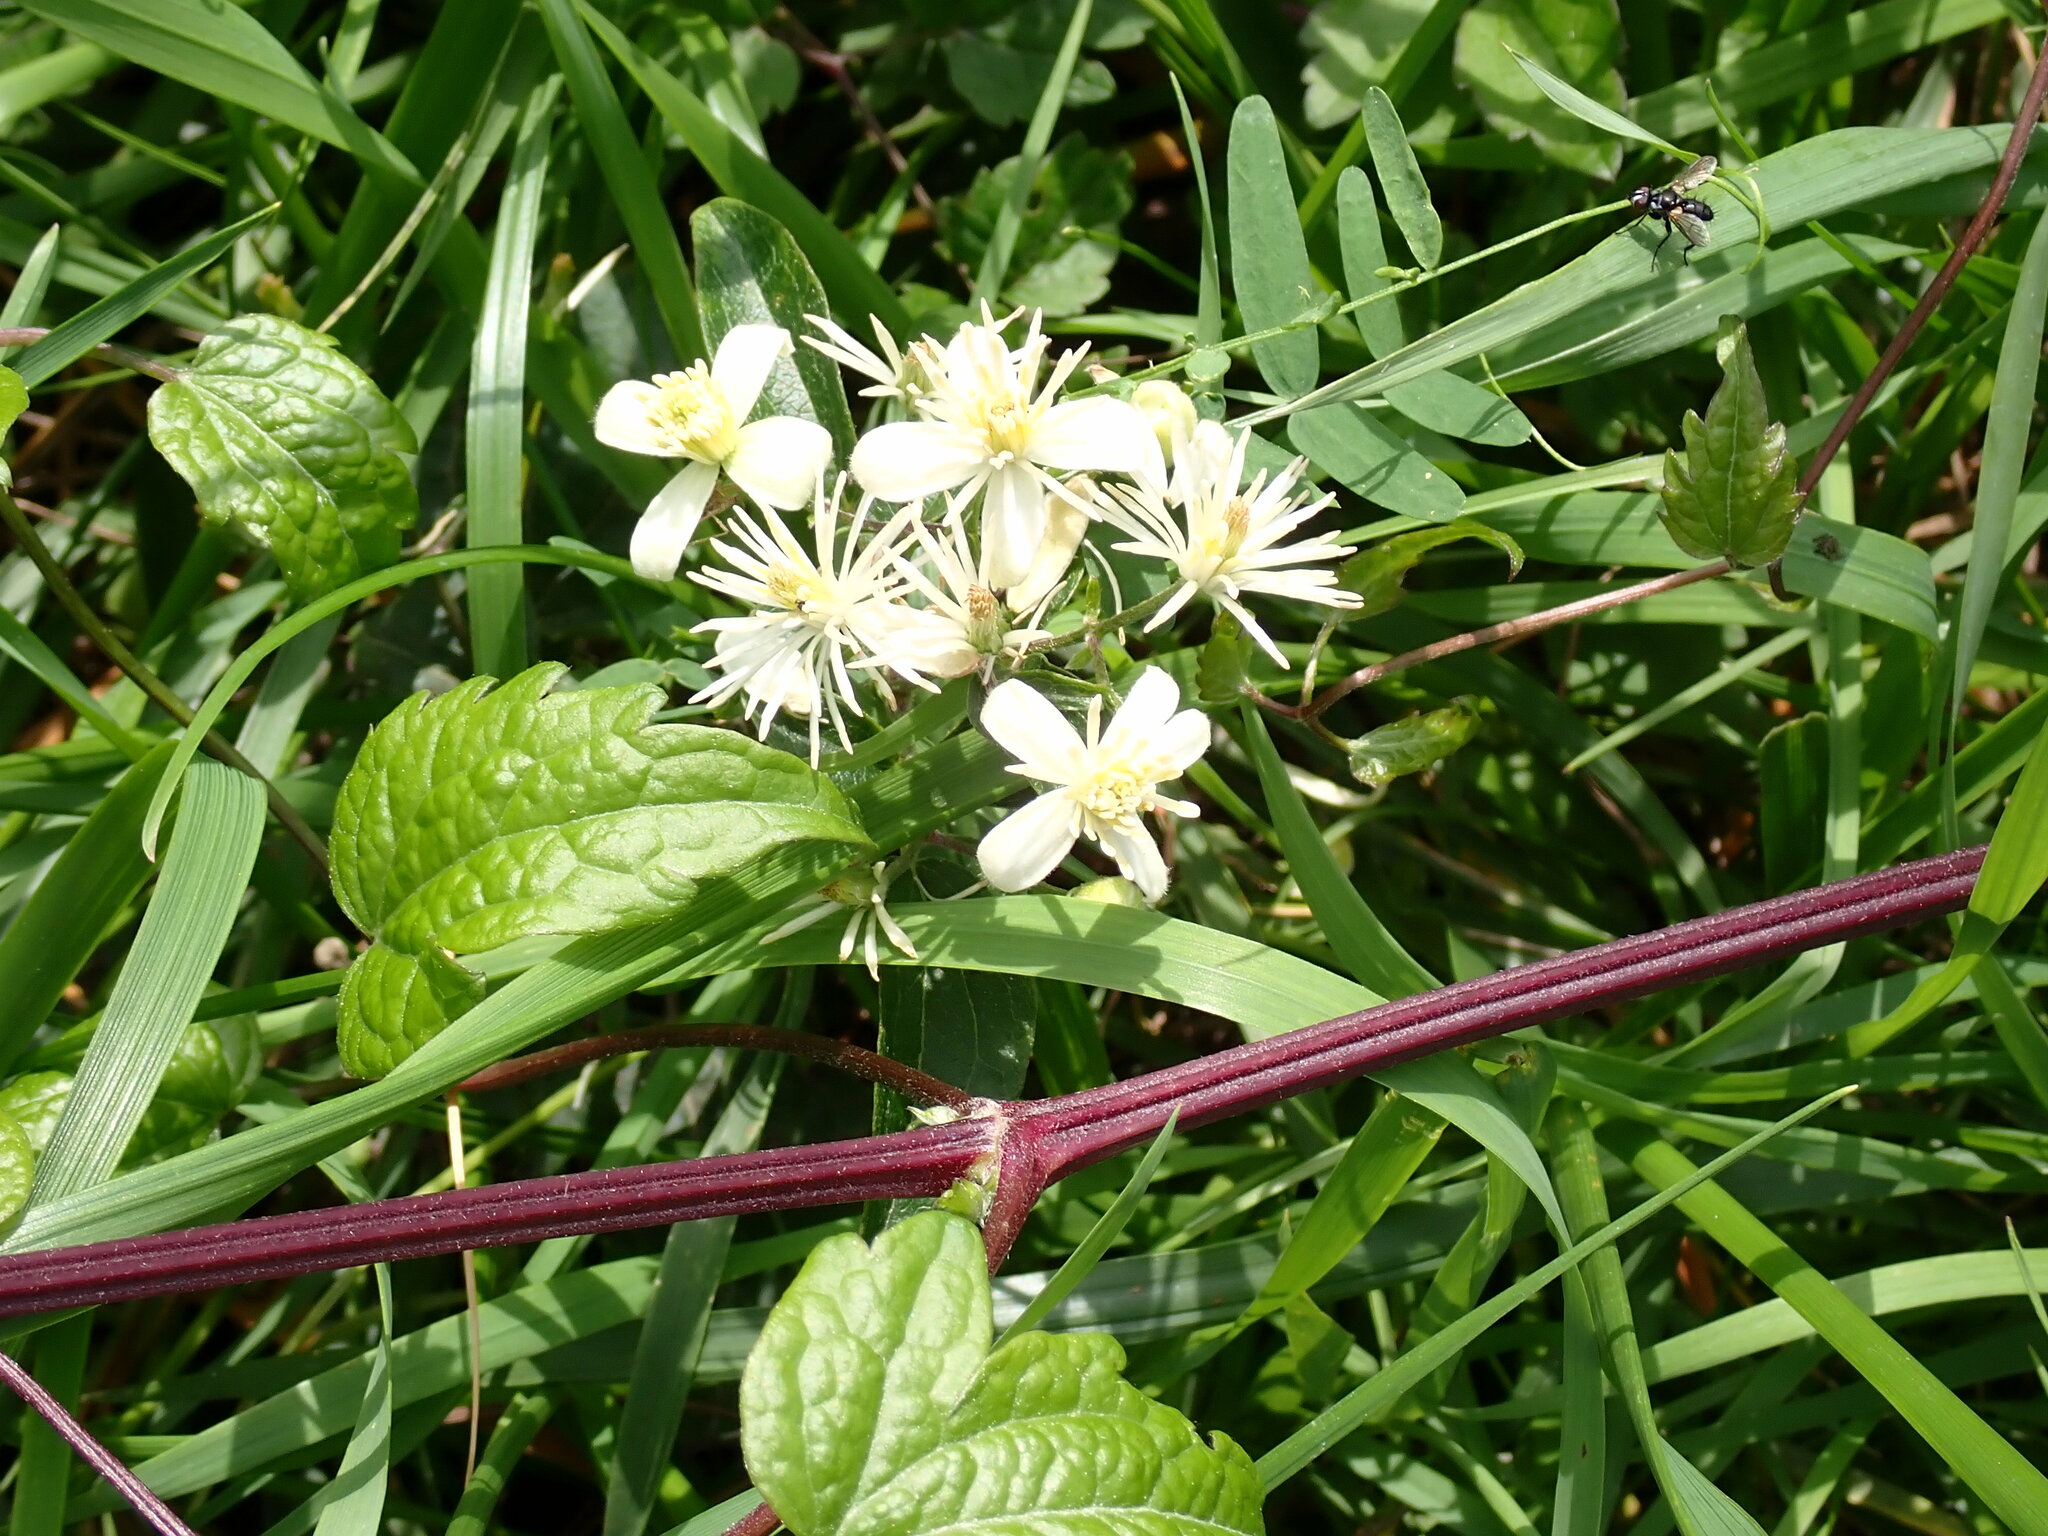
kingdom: Plantae
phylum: Tracheophyta
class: Magnoliopsida
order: Ranunculales
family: Ranunculaceae
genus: Clematis
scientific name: Clematis vitalba
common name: Evergreen clematis
